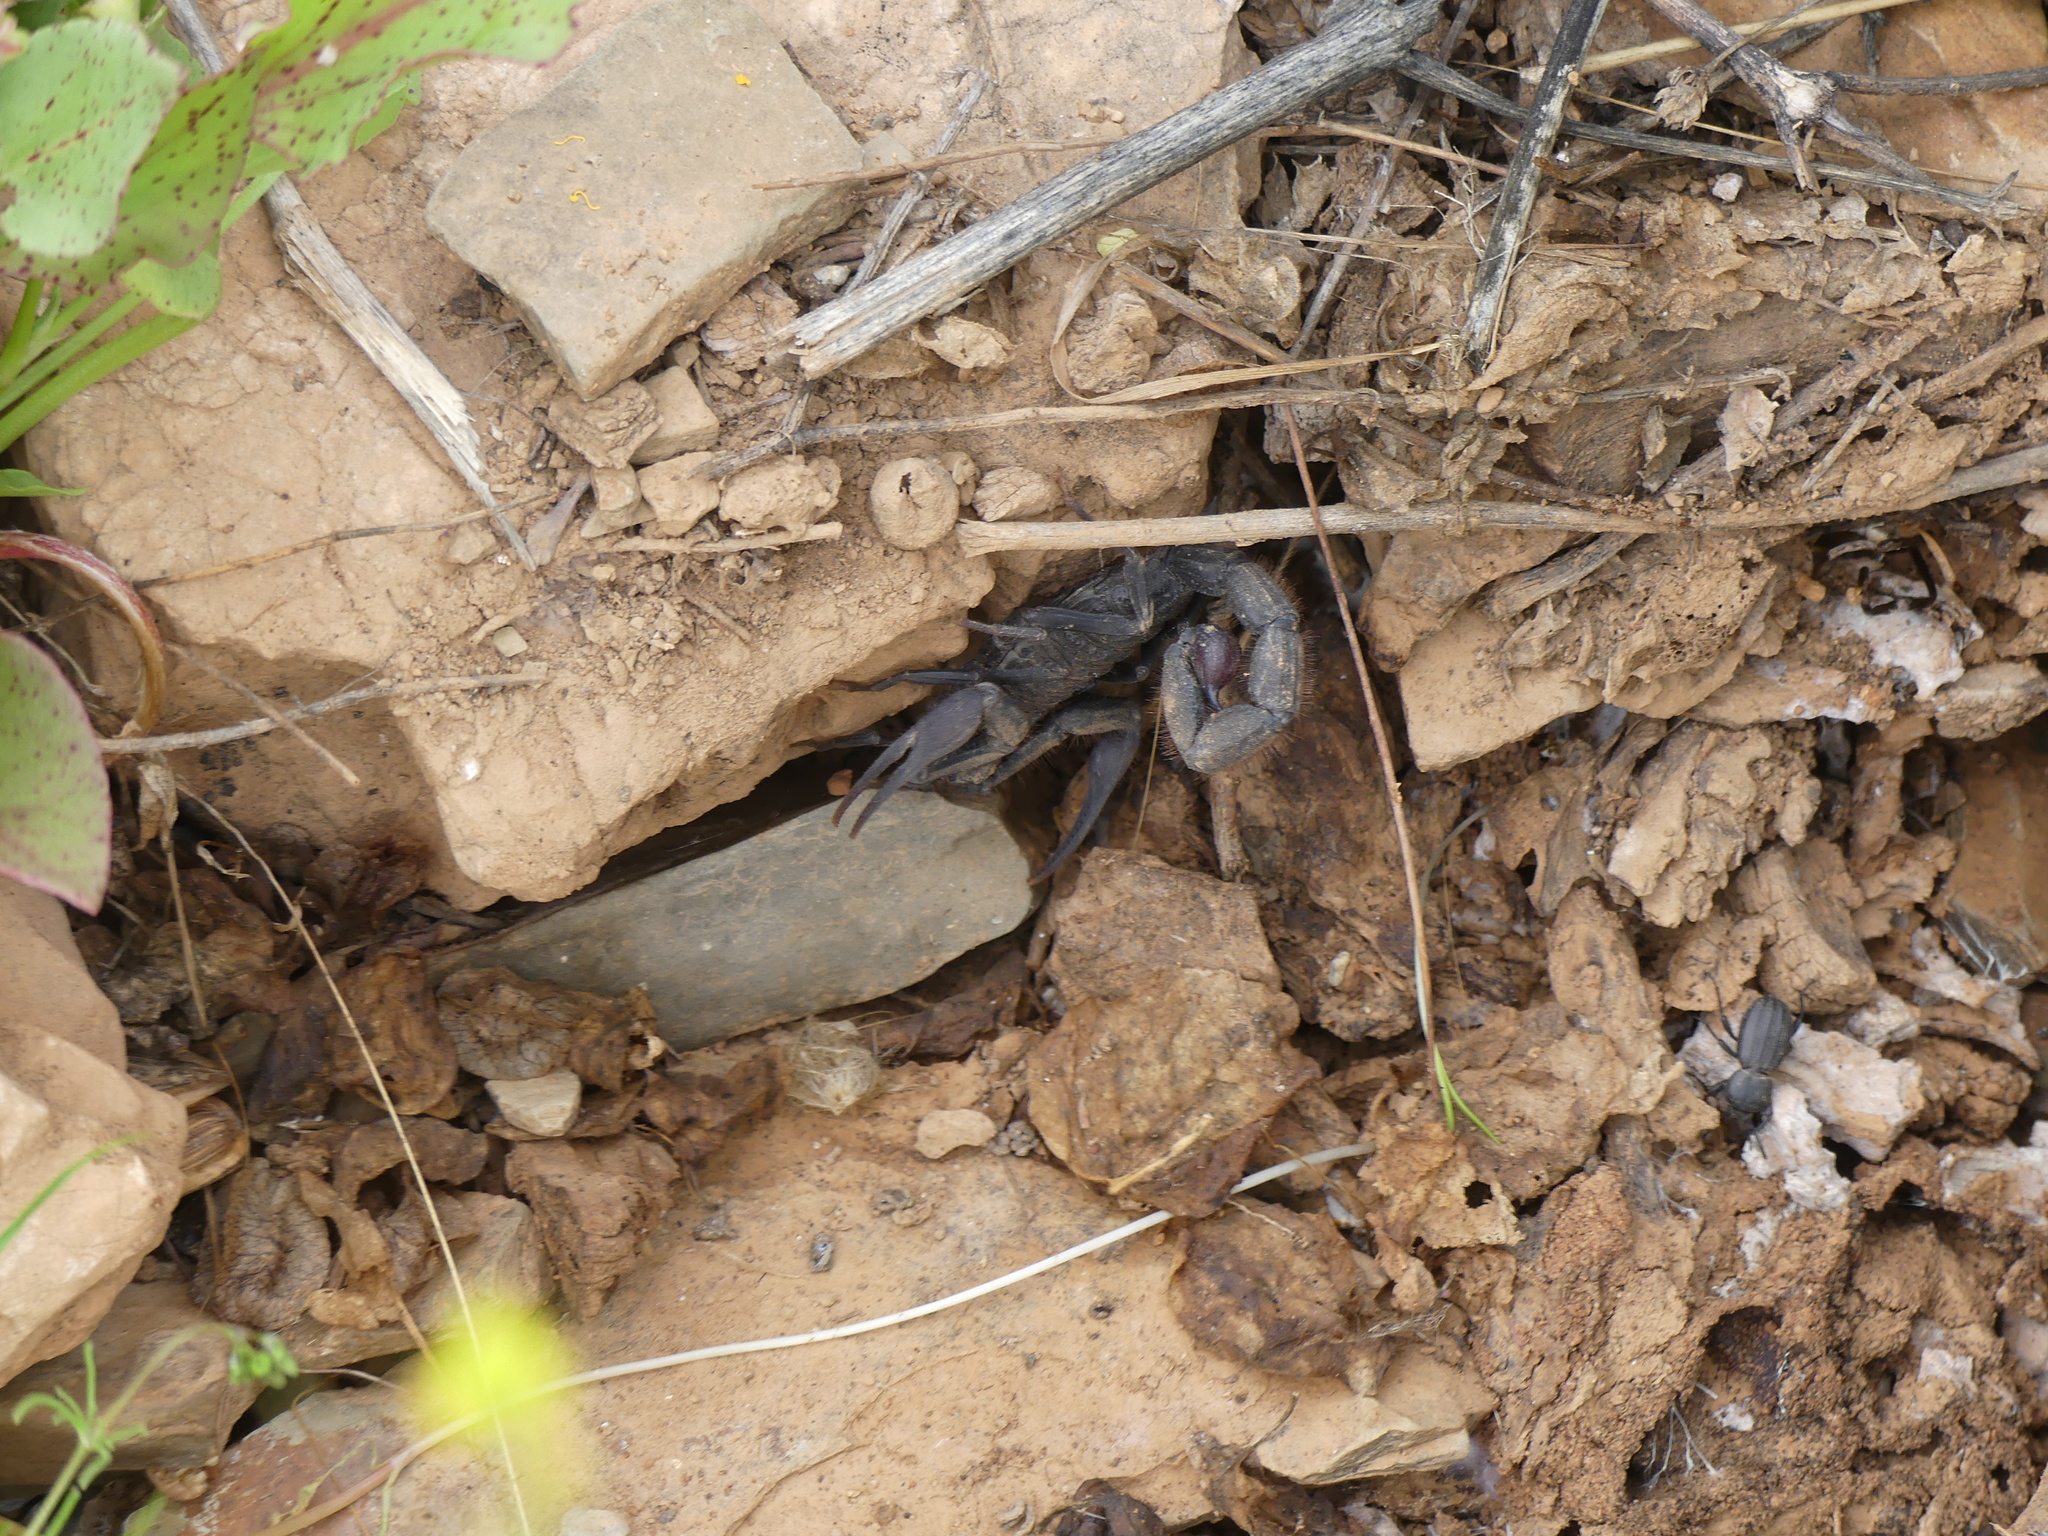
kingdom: Animalia
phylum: Arthropoda
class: Arachnida
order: Scorpiones
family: Buthidae
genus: Hottentotta
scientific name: Hottentotta gentili
